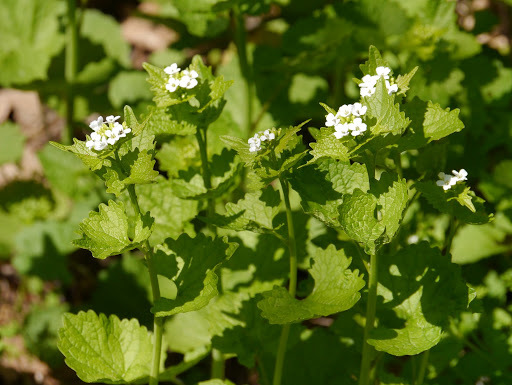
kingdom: Plantae
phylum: Tracheophyta
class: Magnoliopsida
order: Brassicales
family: Brassicaceae
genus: Alliaria
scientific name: Alliaria petiolata
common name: Garlic mustard
